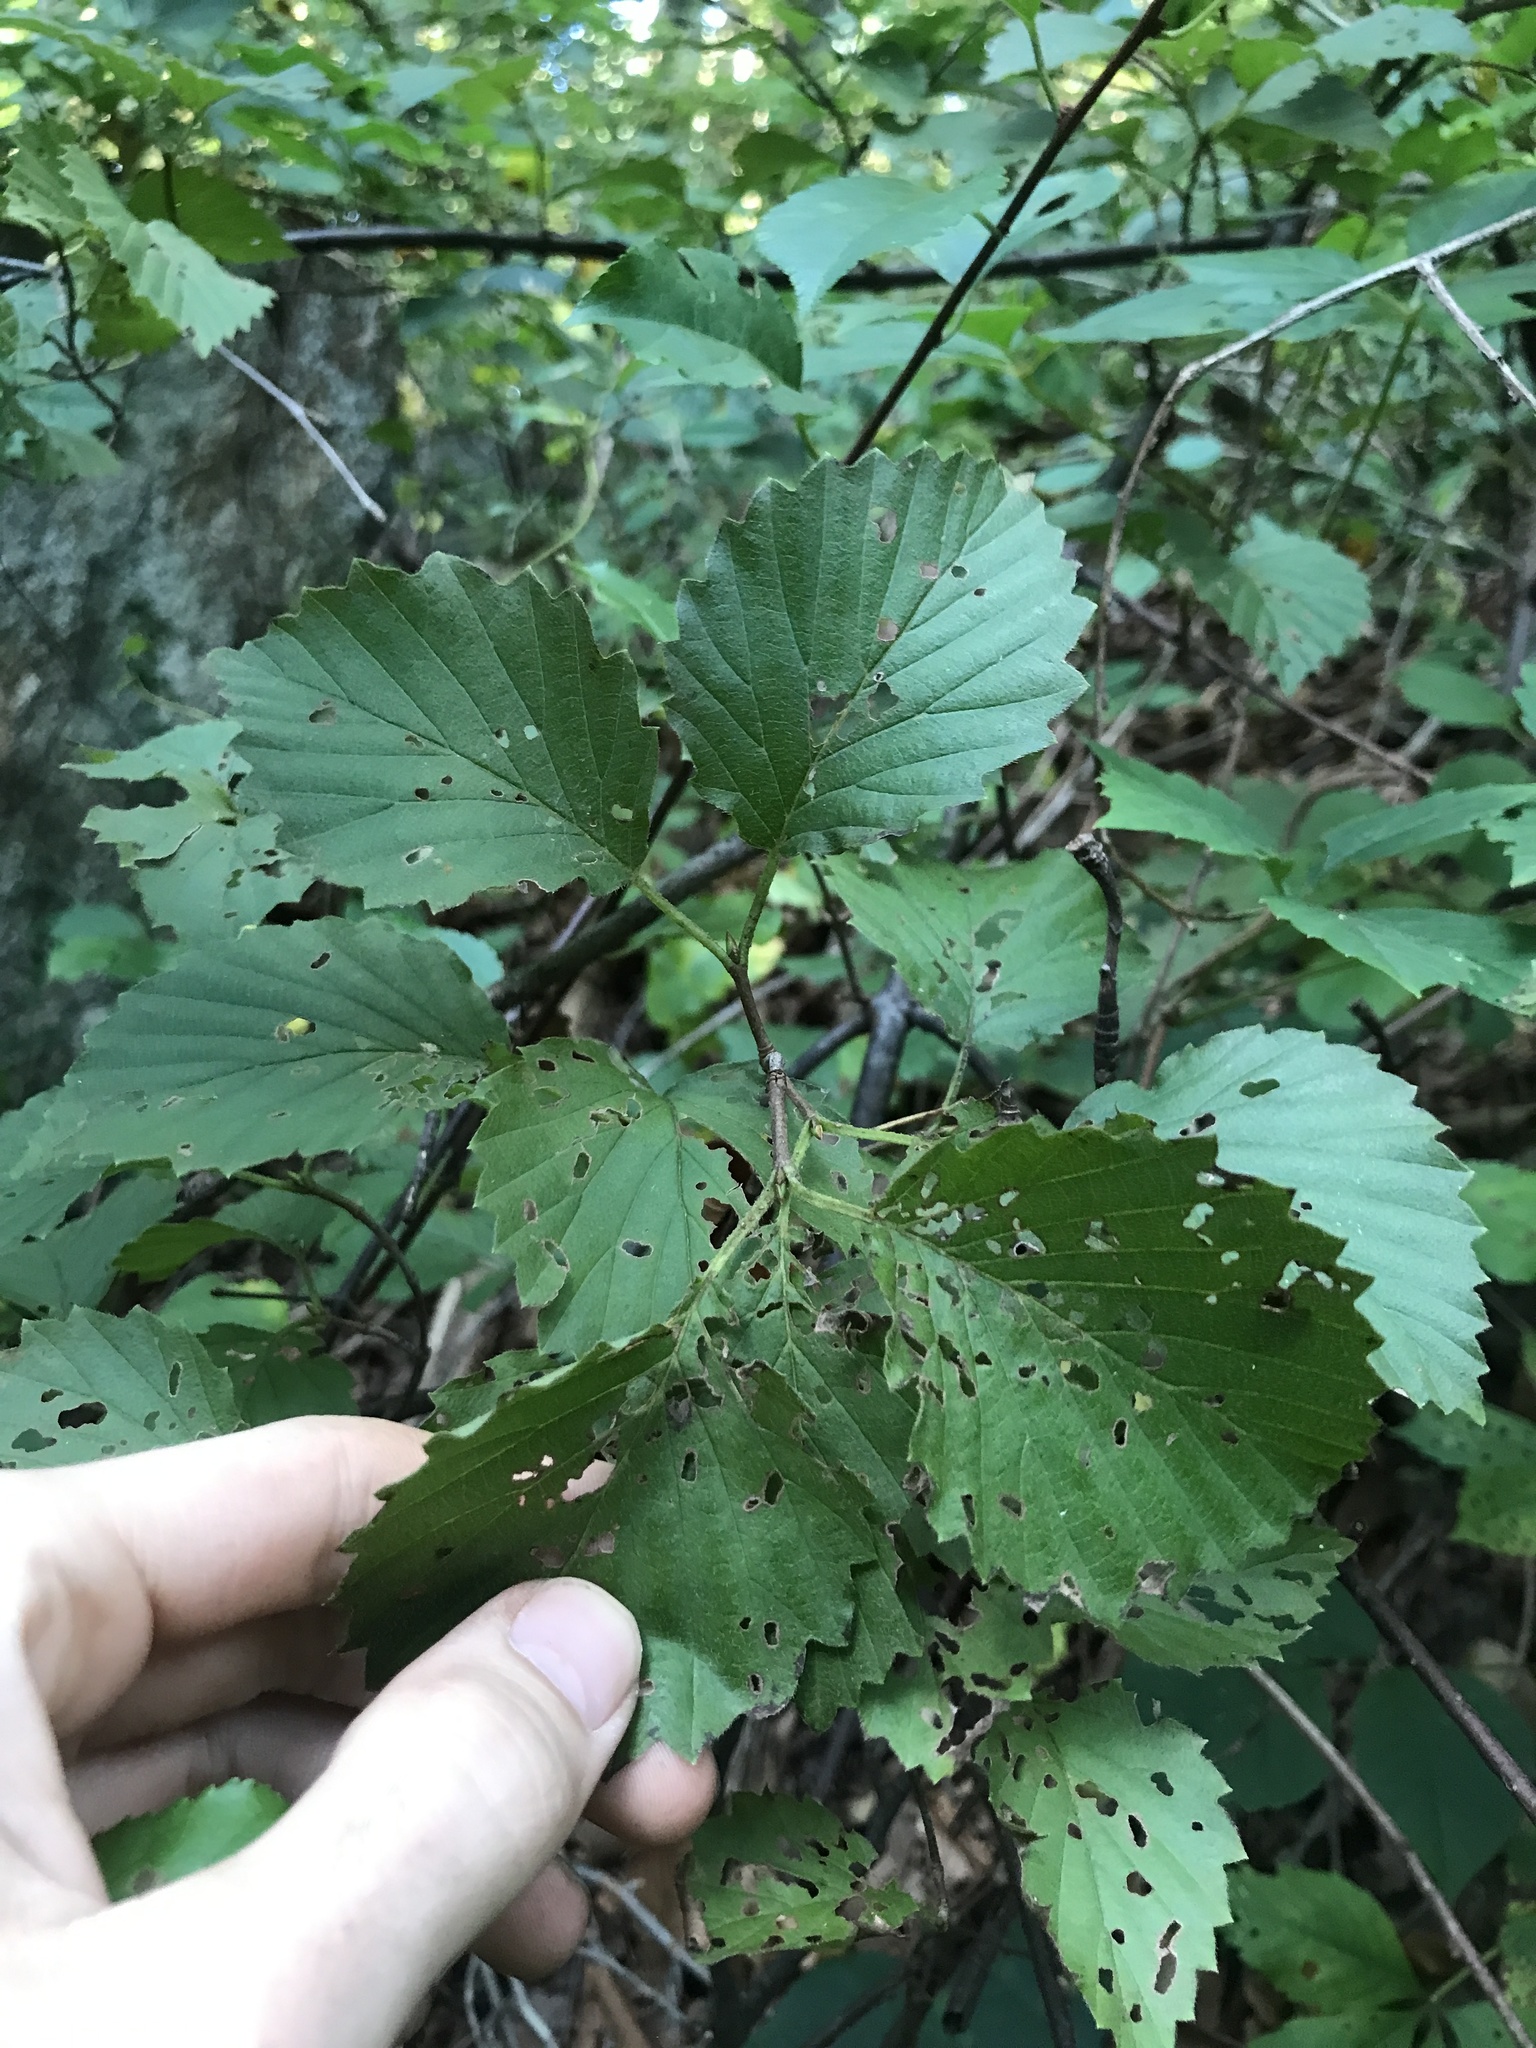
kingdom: Plantae
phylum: Tracheophyta
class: Magnoliopsida
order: Dipsacales
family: Viburnaceae
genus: Viburnum
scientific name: Viburnum dentatum
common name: Arrow-wood
